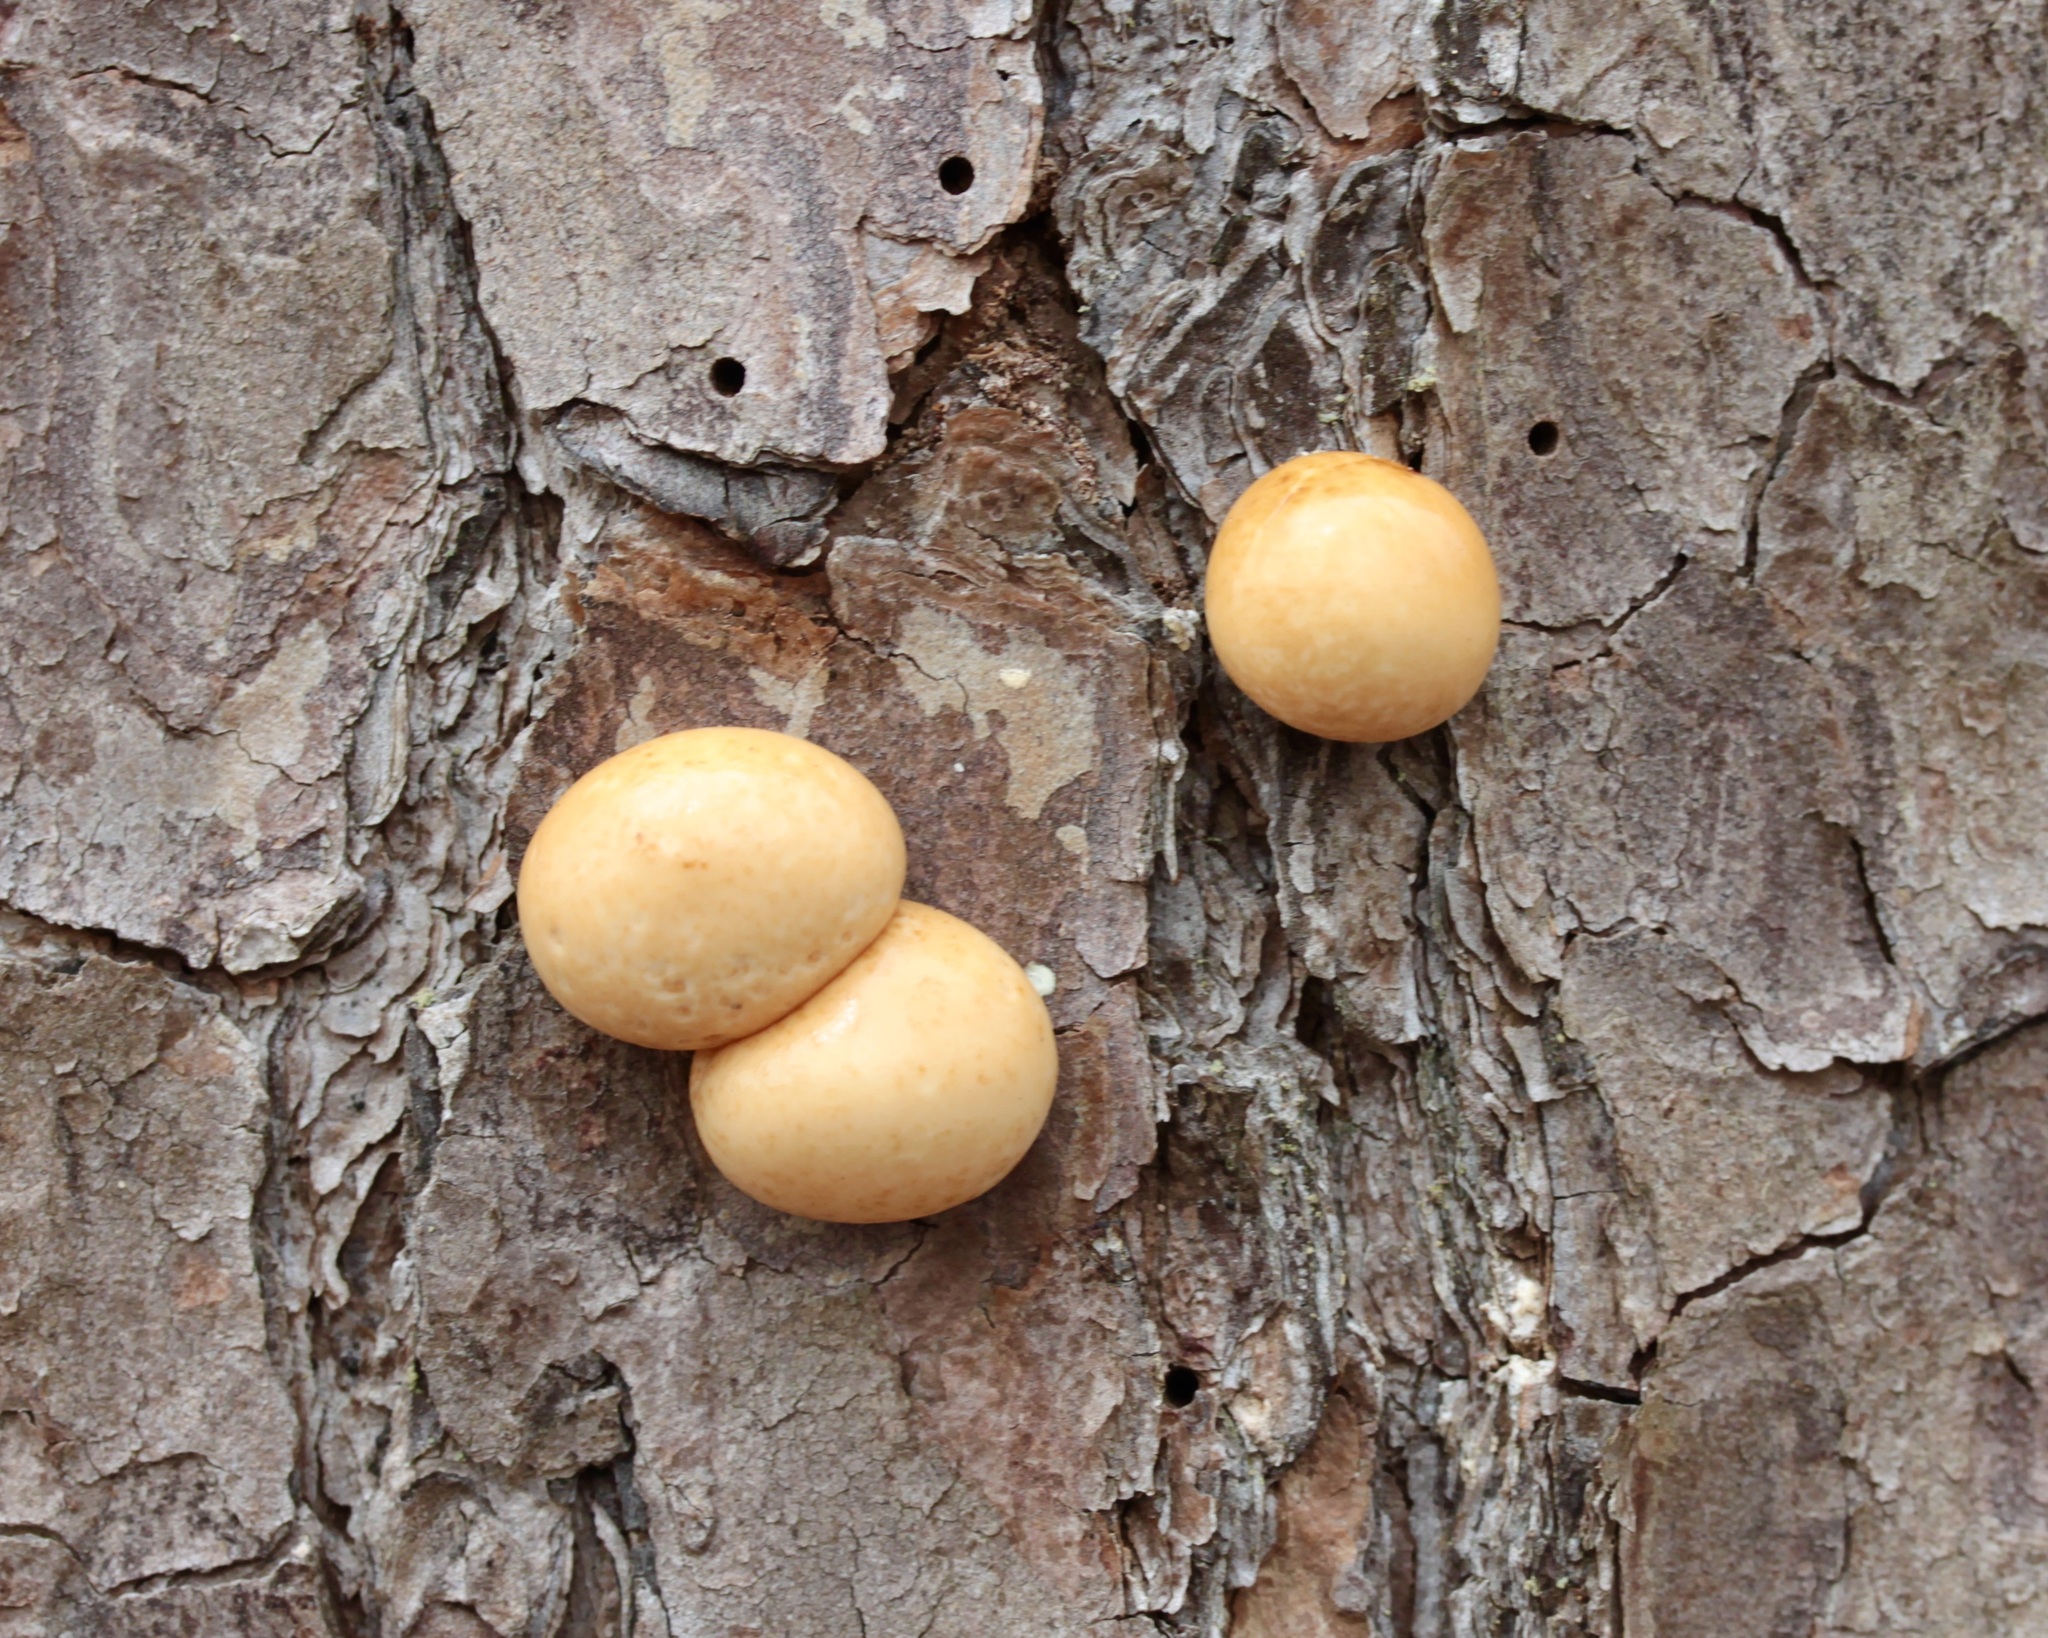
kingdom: Fungi
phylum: Basidiomycota
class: Agaricomycetes
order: Polyporales
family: Polyporaceae
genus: Cryptoporus
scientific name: Cryptoporus volvatus
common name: Veiled polypore
